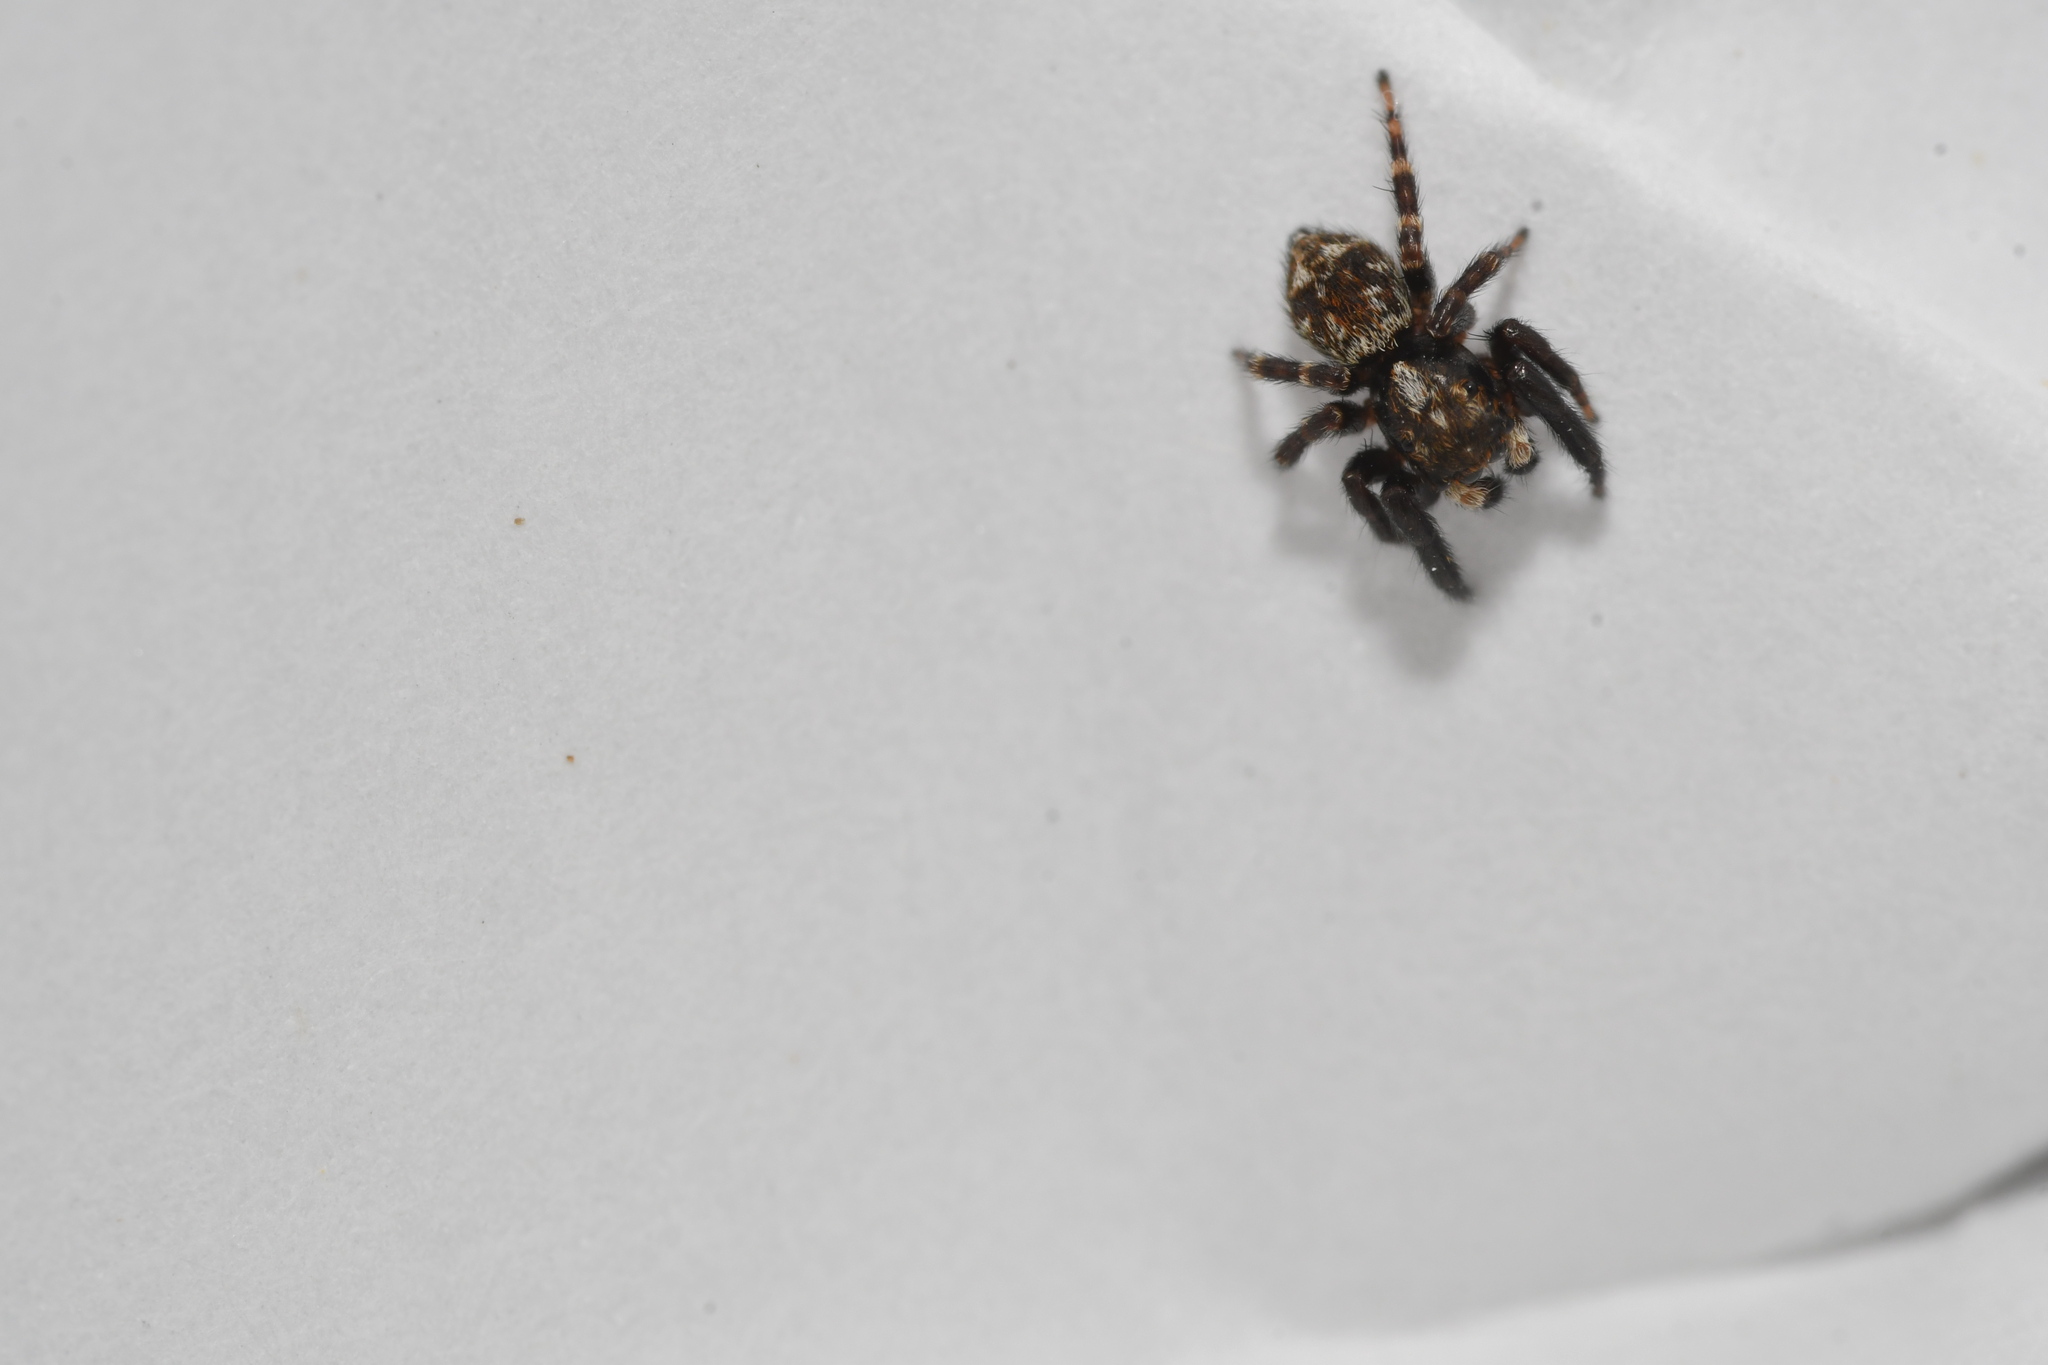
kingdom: Animalia
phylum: Arthropoda
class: Arachnida
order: Araneae
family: Salticidae
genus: Pseudeuophrys
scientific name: Pseudeuophrys erratica
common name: Jumping spider
